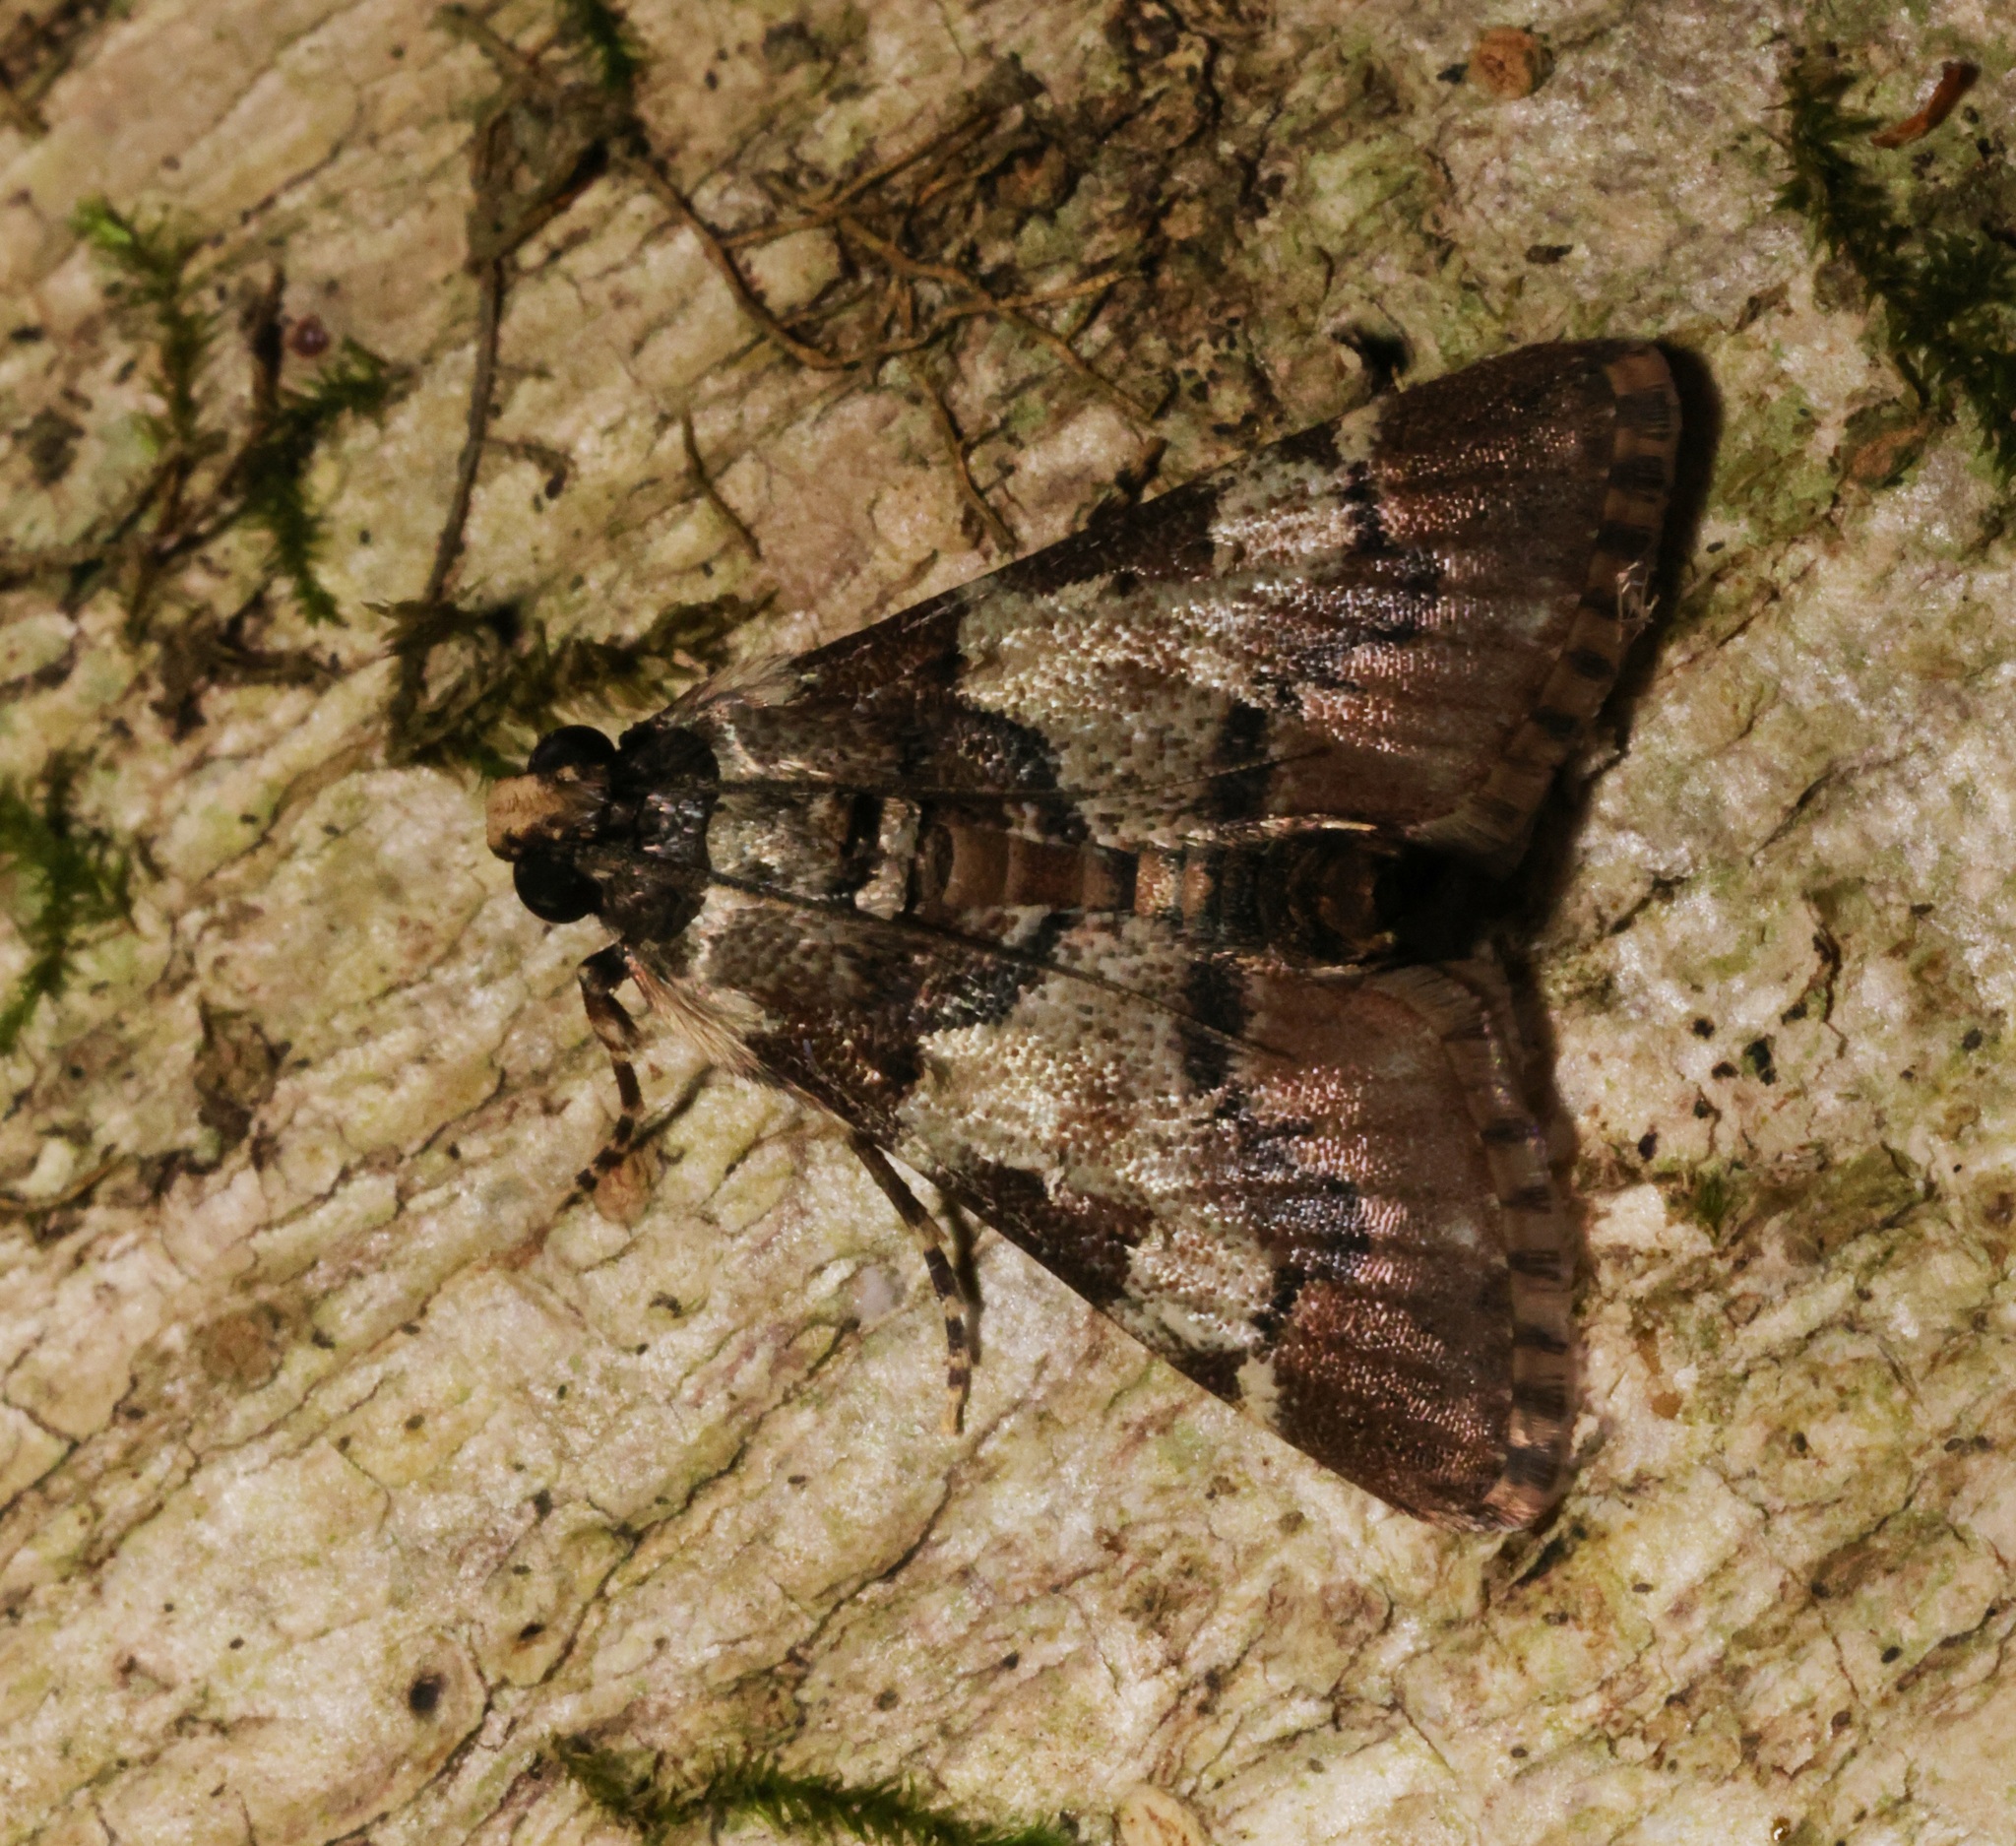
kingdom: Animalia
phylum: Arthropoda
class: Insecta
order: Lepidoptera
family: Pyralidae
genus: Salma
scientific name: Salma
